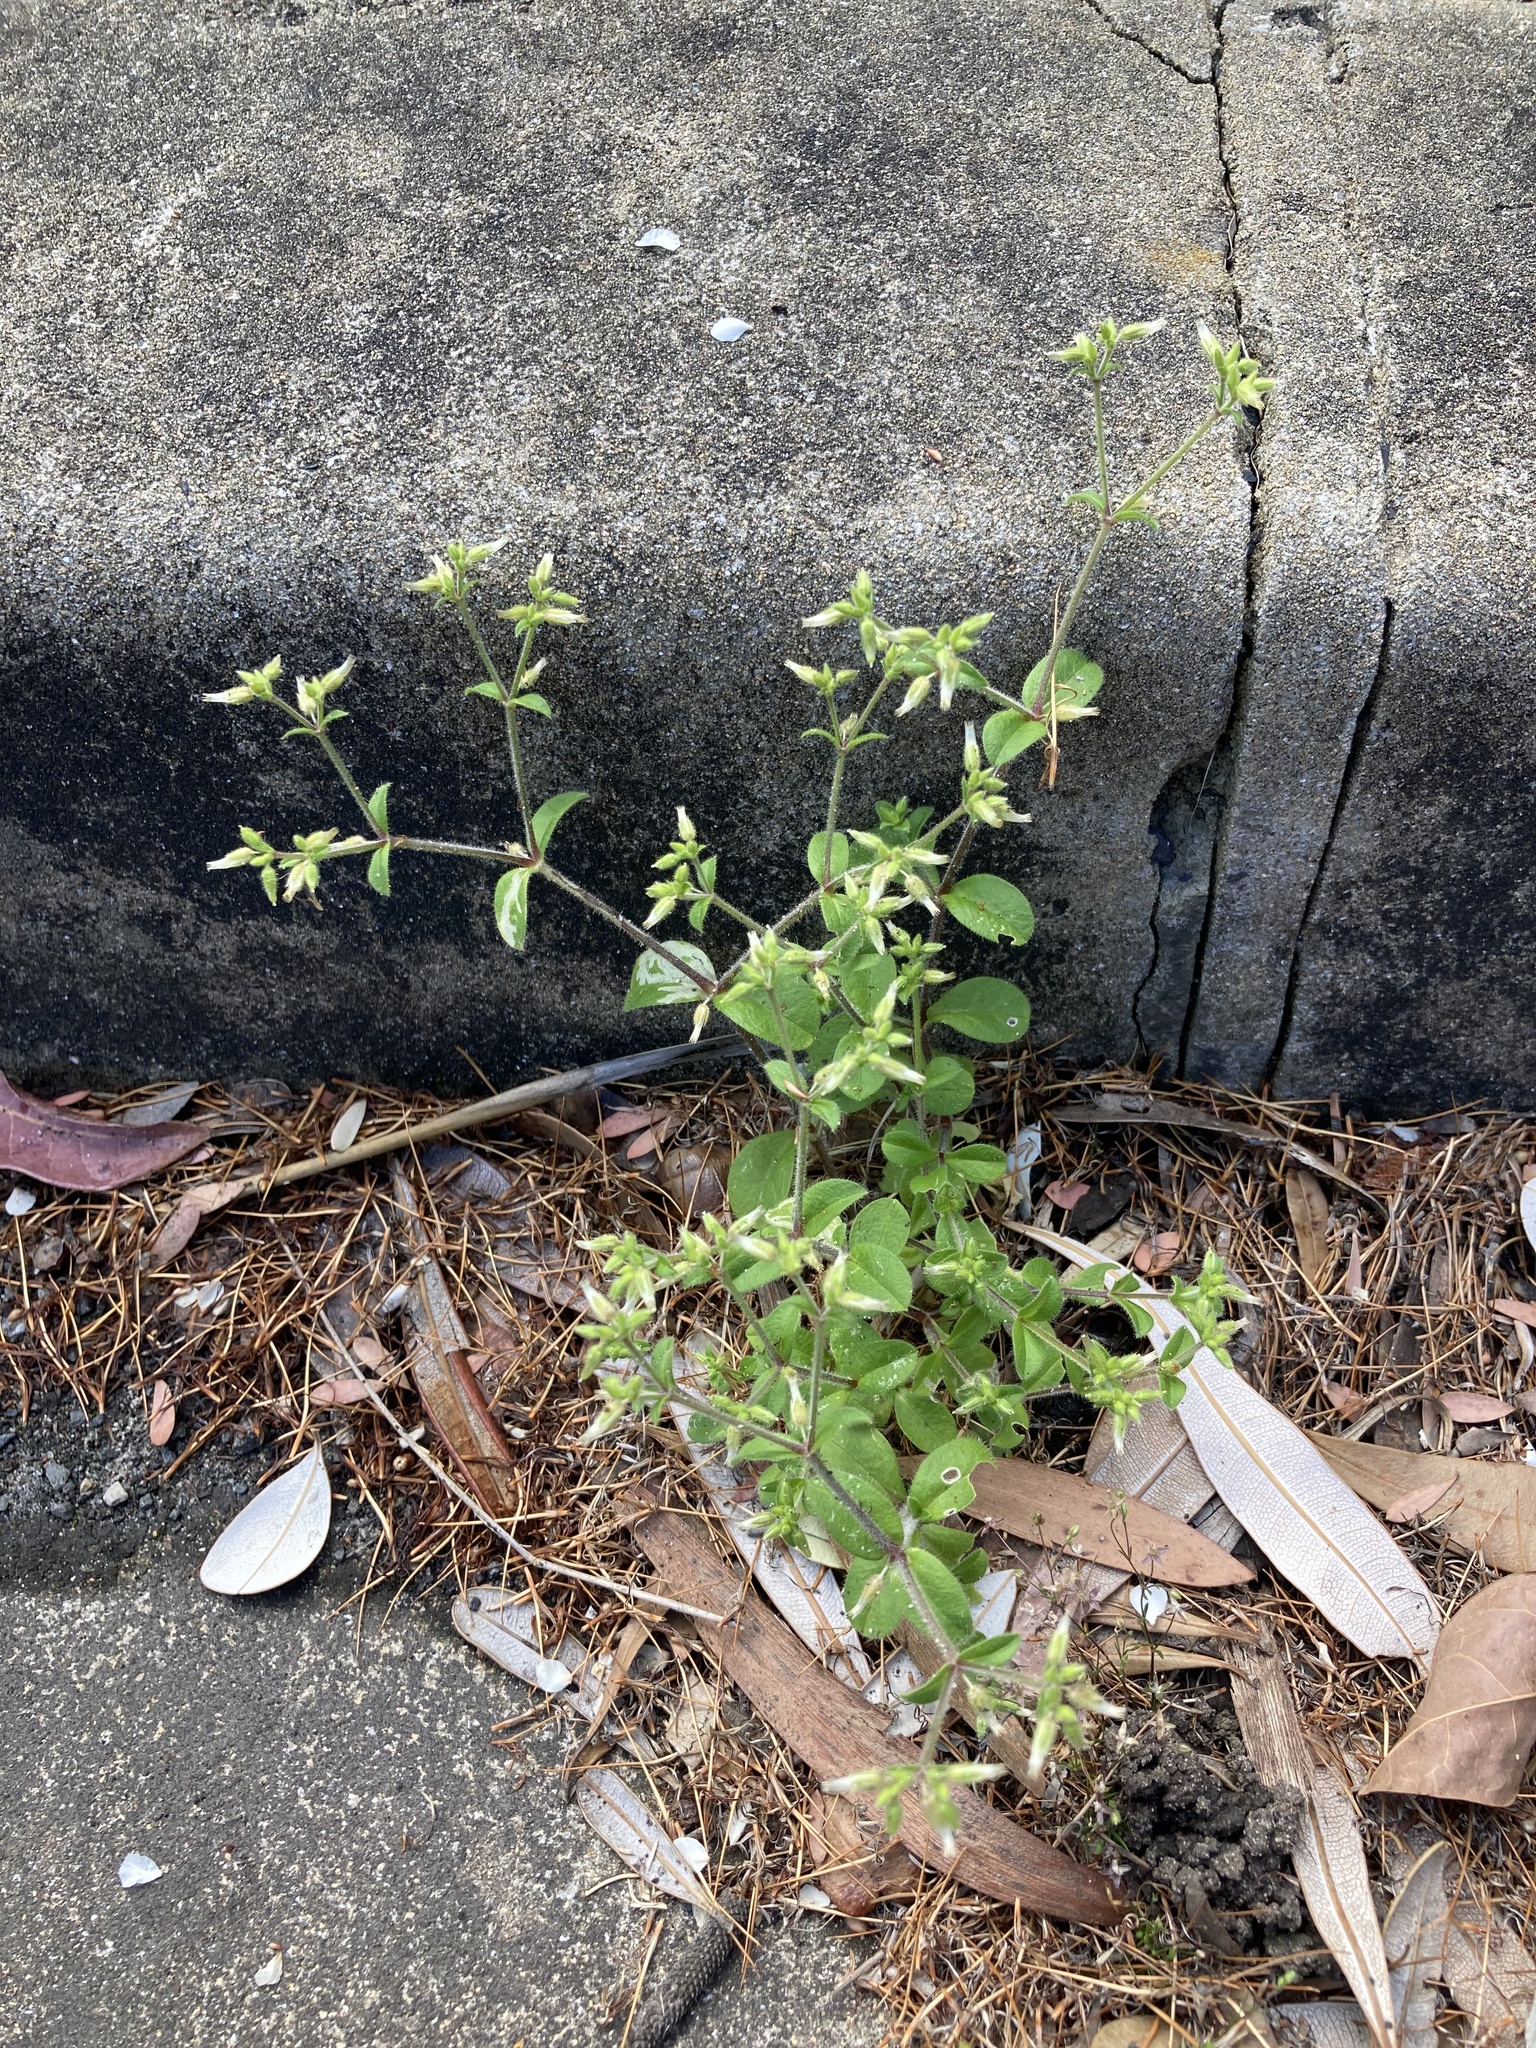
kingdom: Plantae
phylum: Tracheophyta
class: Magnoliopsida
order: Caryophyllales
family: Caryophyllaceae
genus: Cerastium
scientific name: Cerastium glomeratum
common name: Sticky chickweed
